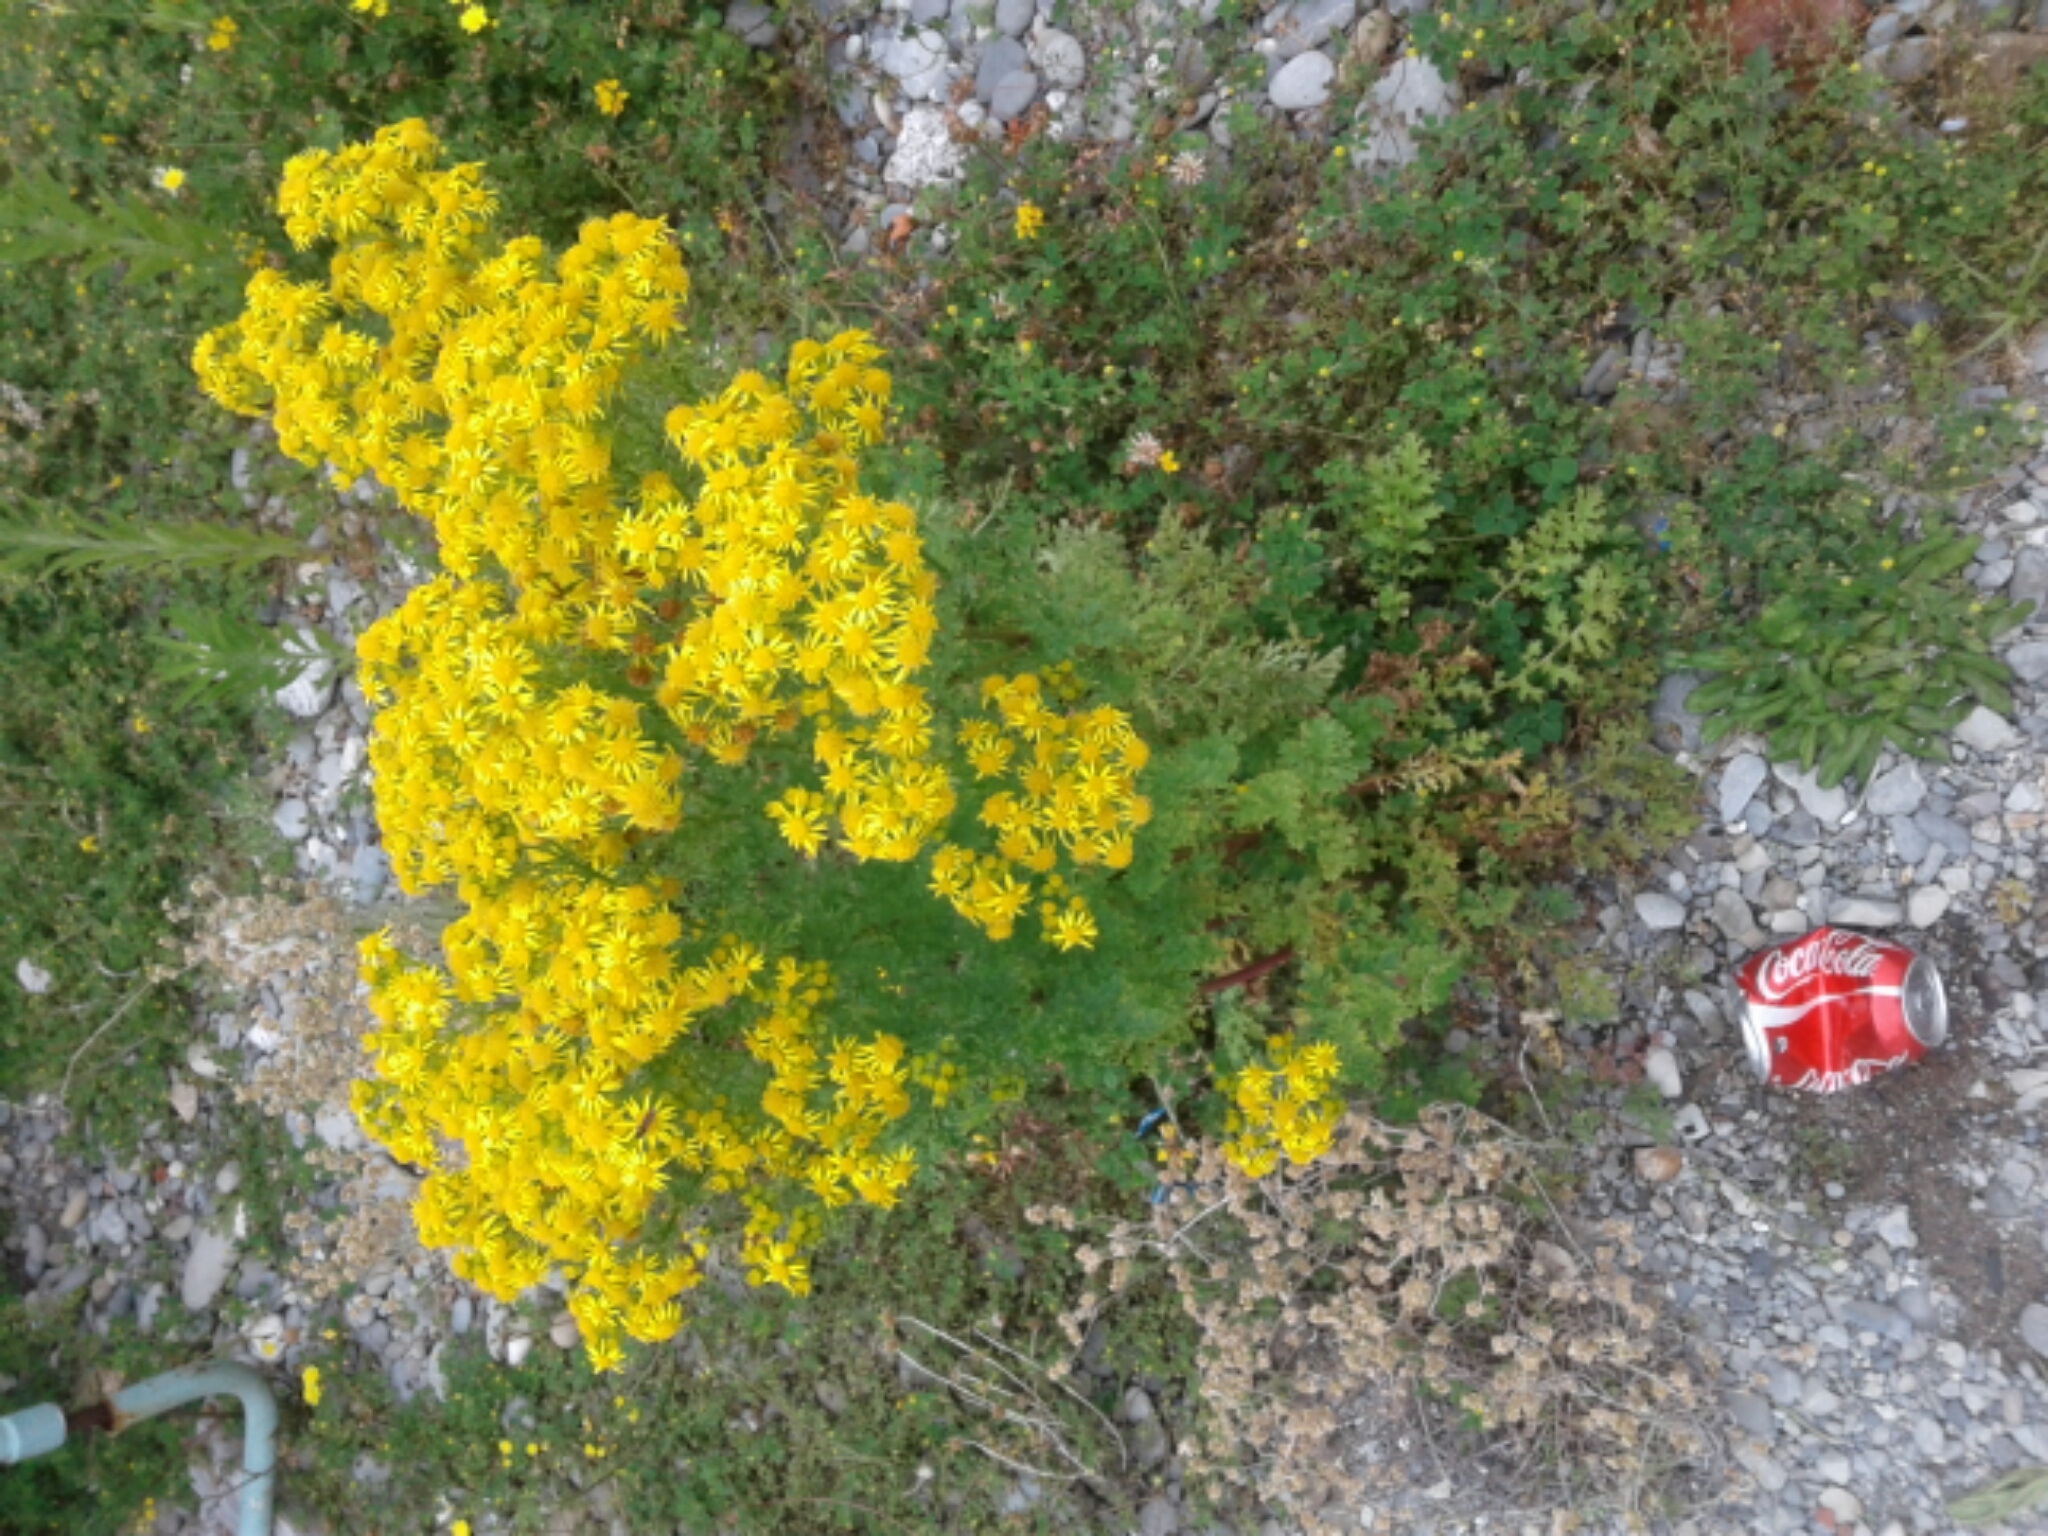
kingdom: Plantae
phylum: Tracheophyta
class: Magnoliopsida
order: Asterales
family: Asteraceae
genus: Jacobaea
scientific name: Jacobaea vulgaris
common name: Stinking willie
